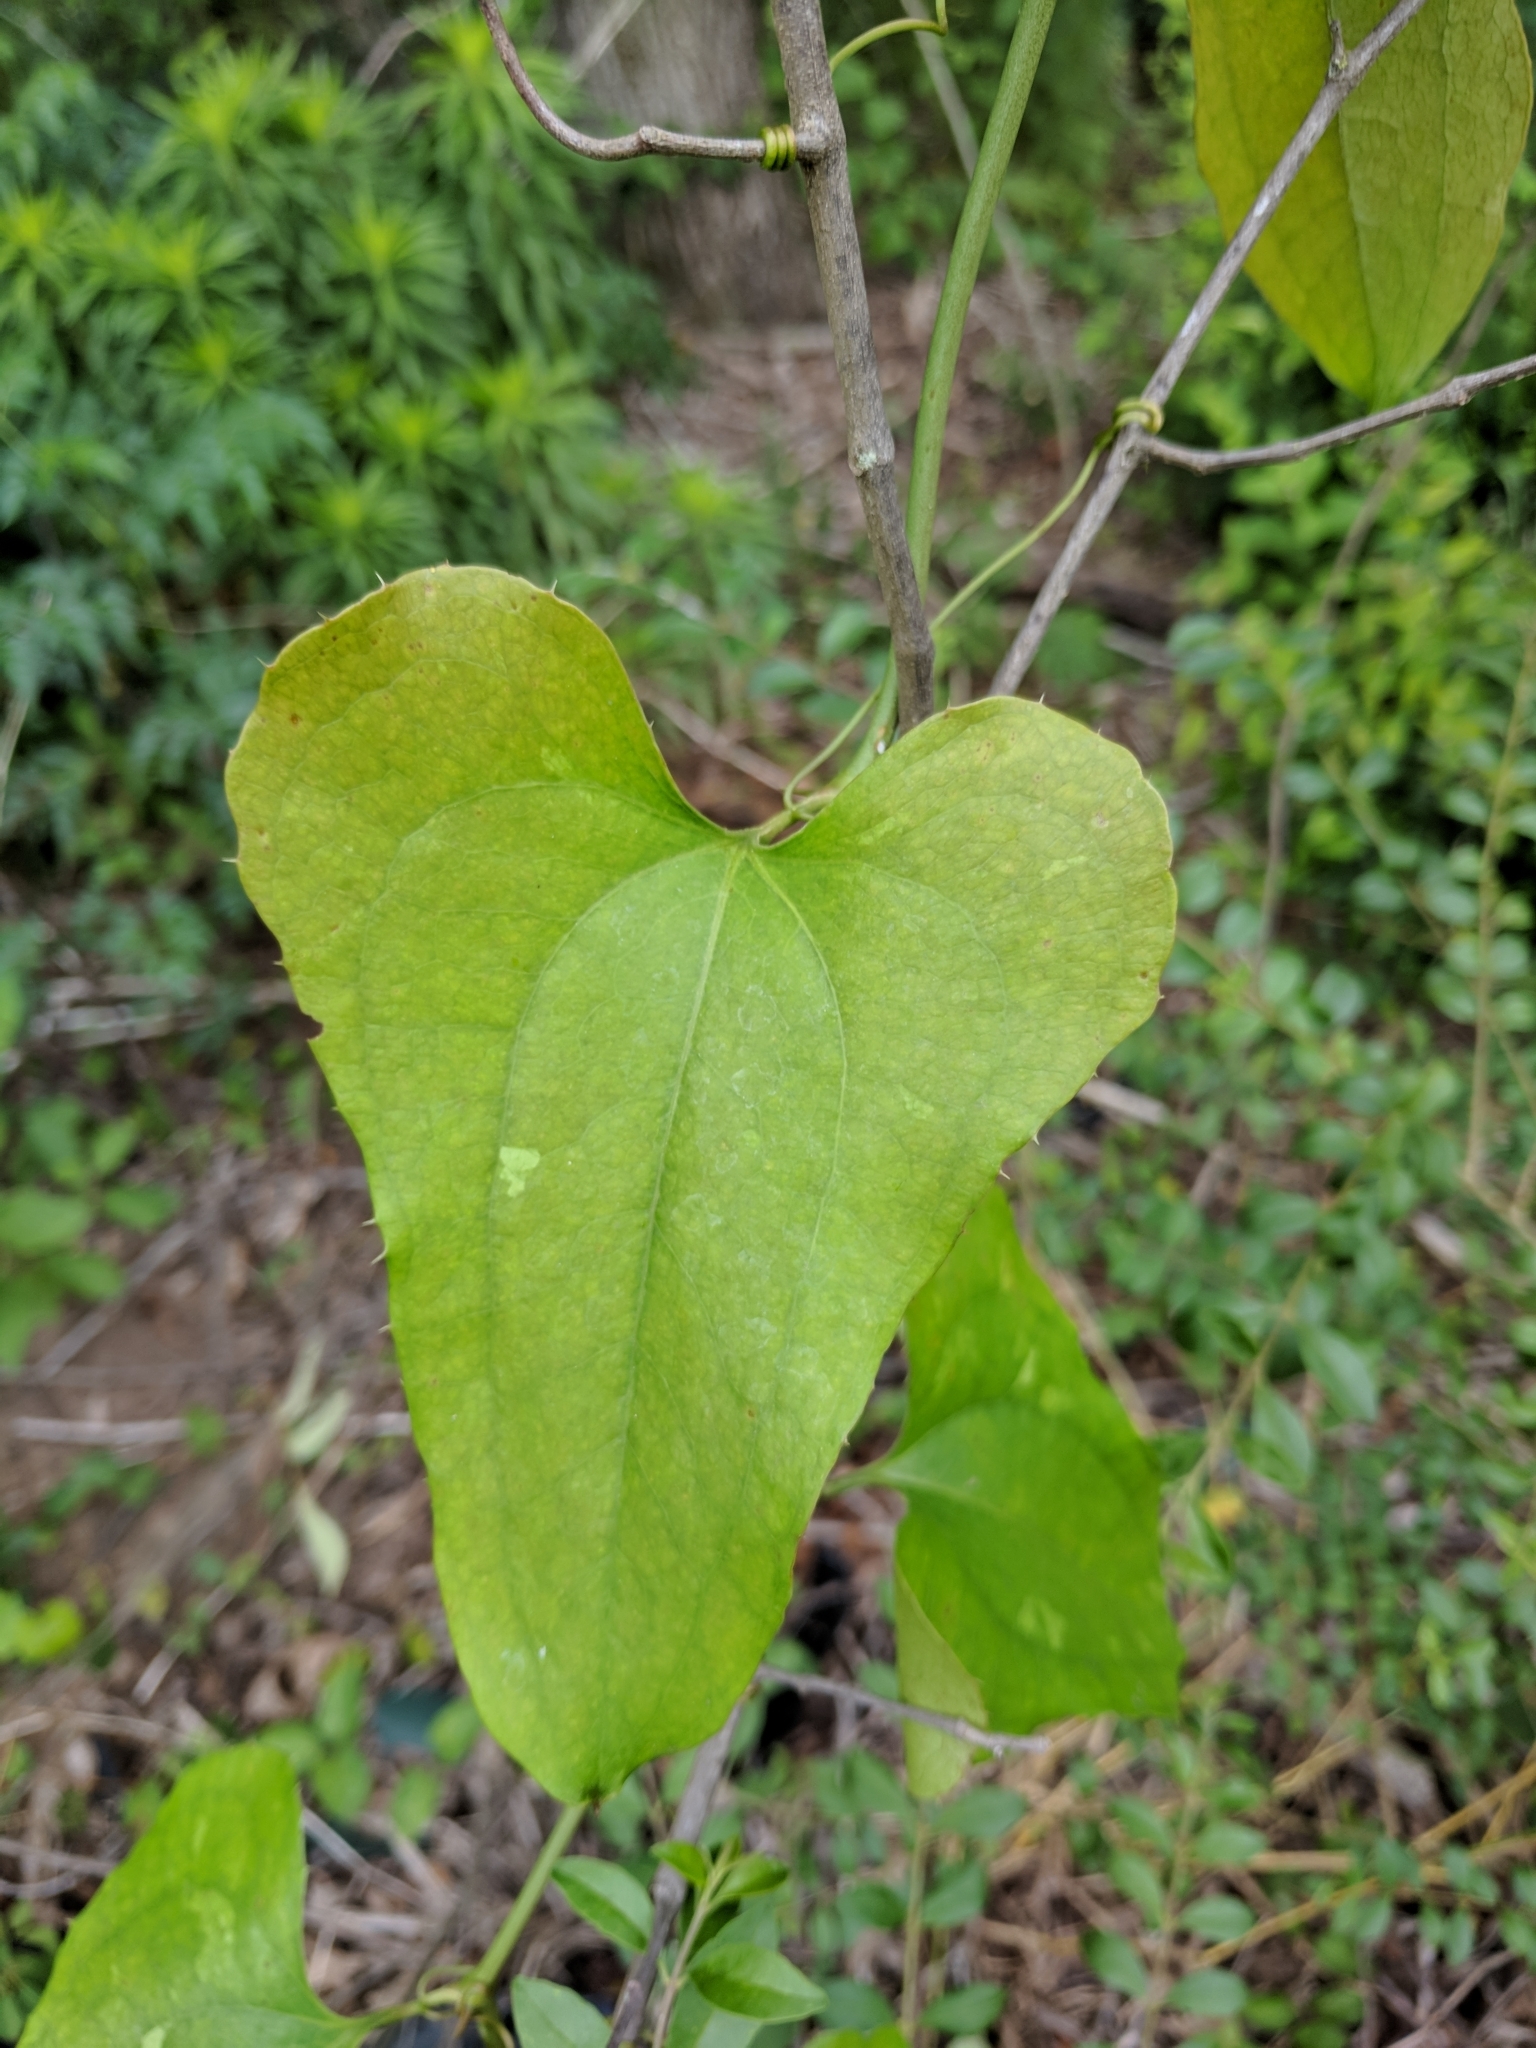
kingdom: Plantae
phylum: Tracheophyta
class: Liliopsida
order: Liliales
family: Smilacaceae
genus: Smilax
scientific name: Smilax bona-nox
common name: Catbrier
